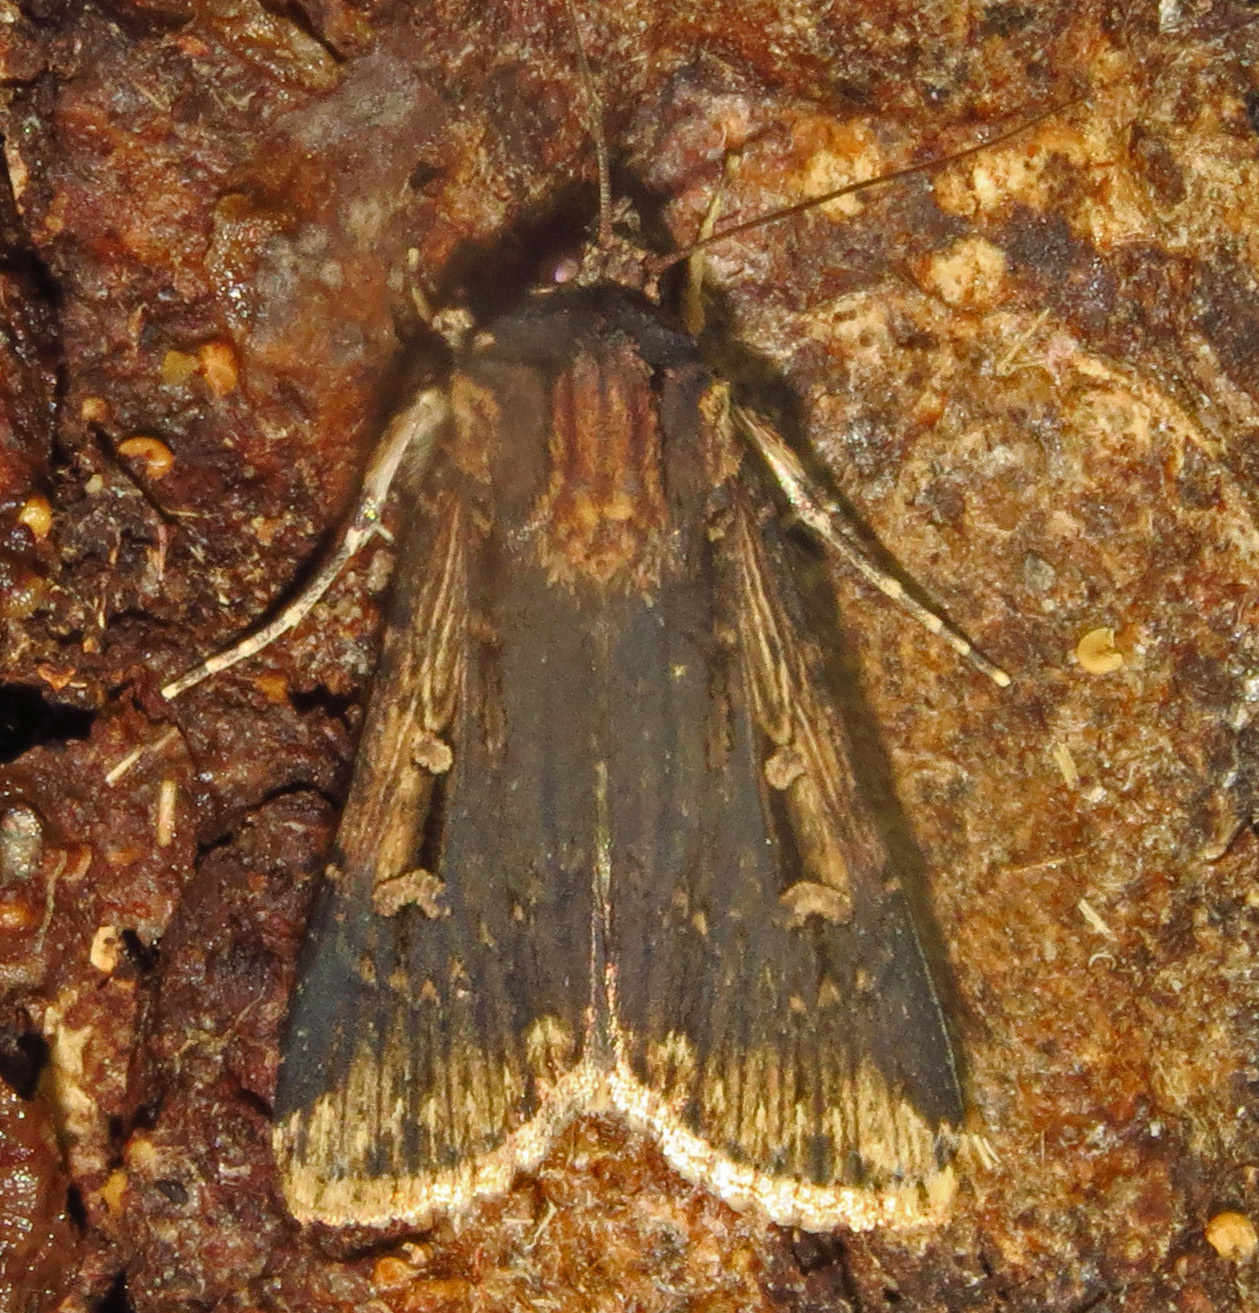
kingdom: Animalia
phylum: Arthropoda
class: Insecta
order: Lepidoptera
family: Noctuidae
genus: Feltia
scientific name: Feltia subterranea
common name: Granulate cutworm
